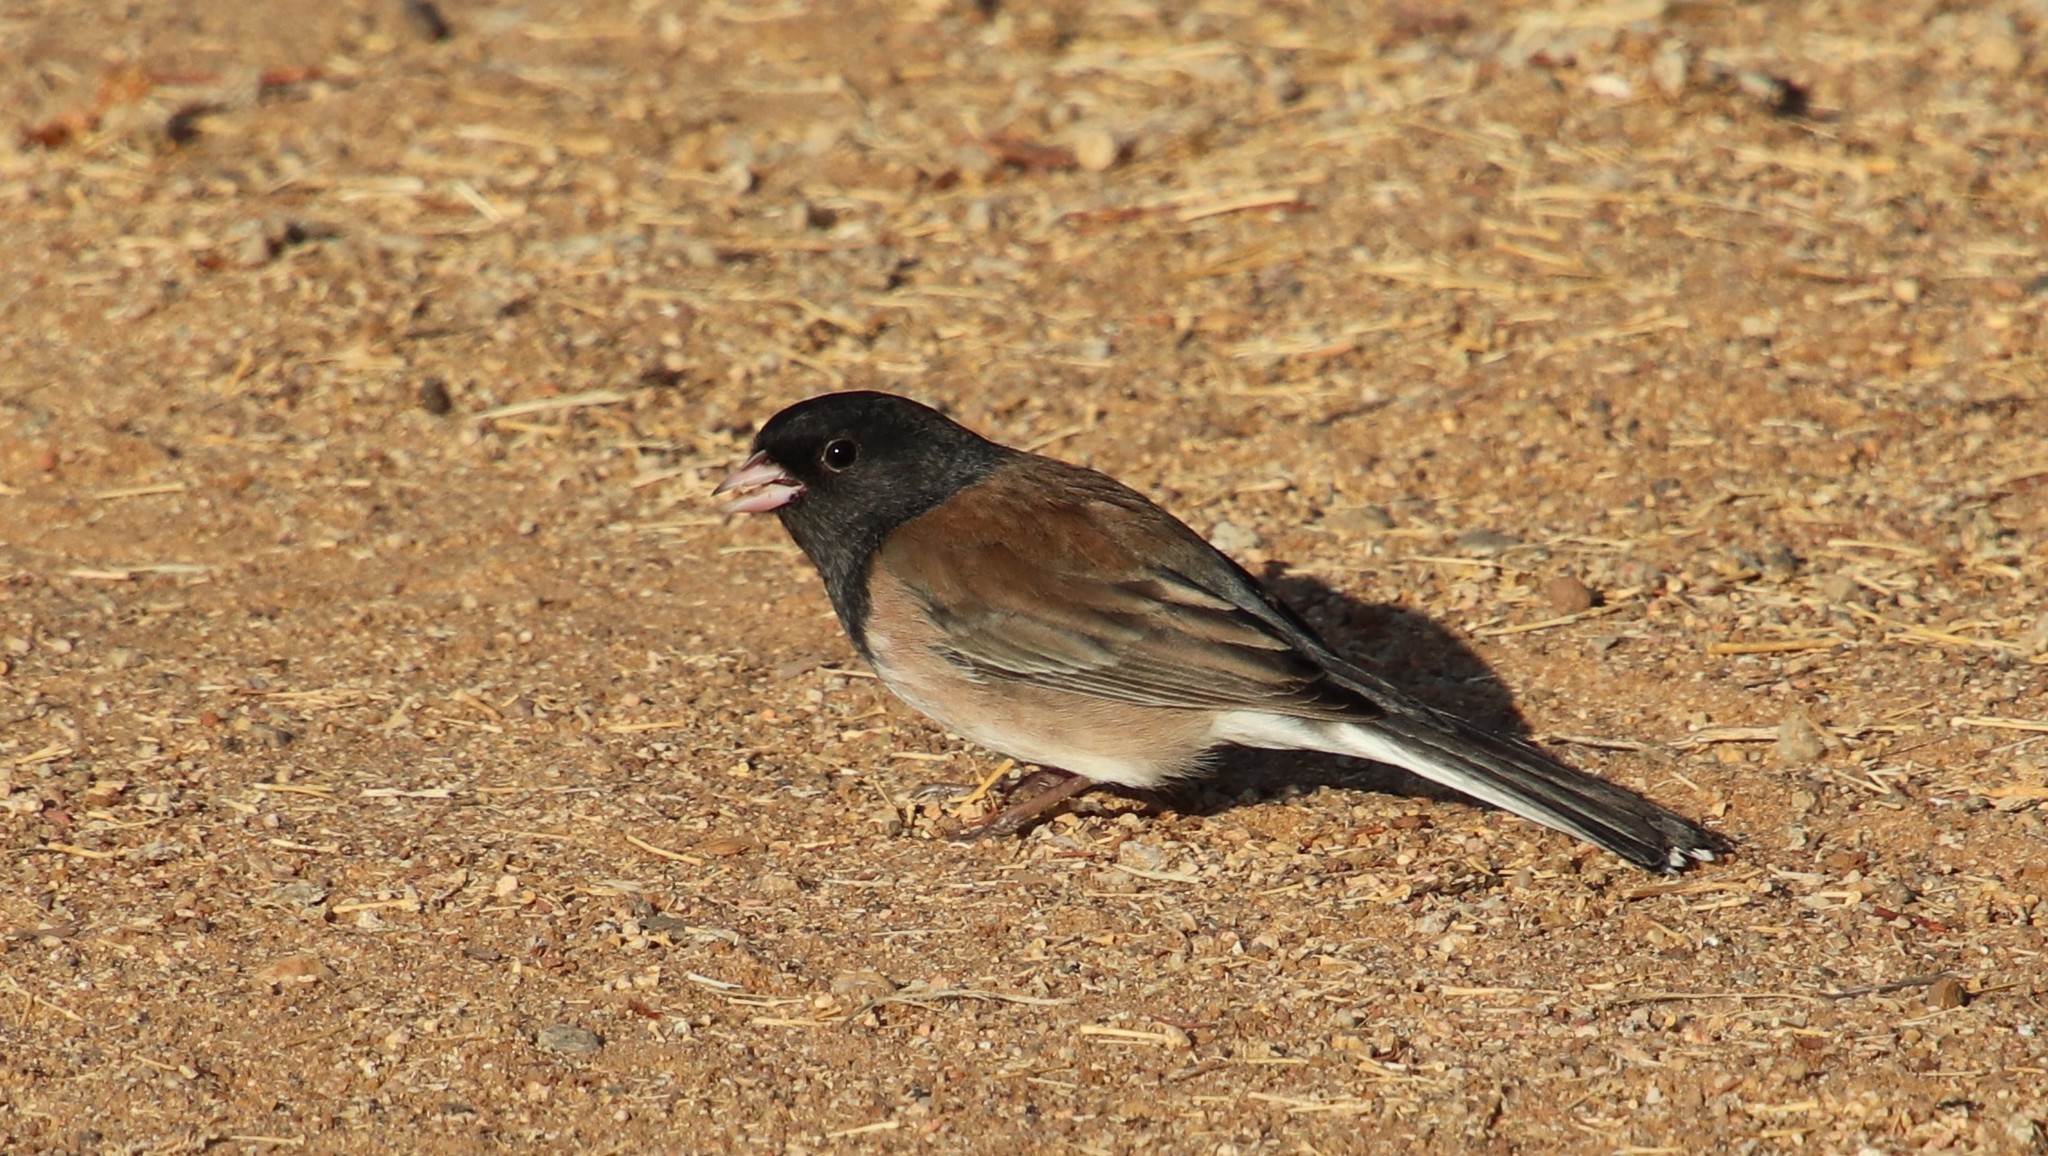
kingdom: Animalia
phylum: Chordata
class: Aves
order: Passeriformes
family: Passerellidae
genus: Junco
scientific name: Junco hyemalis
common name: Dark-eyed junco
